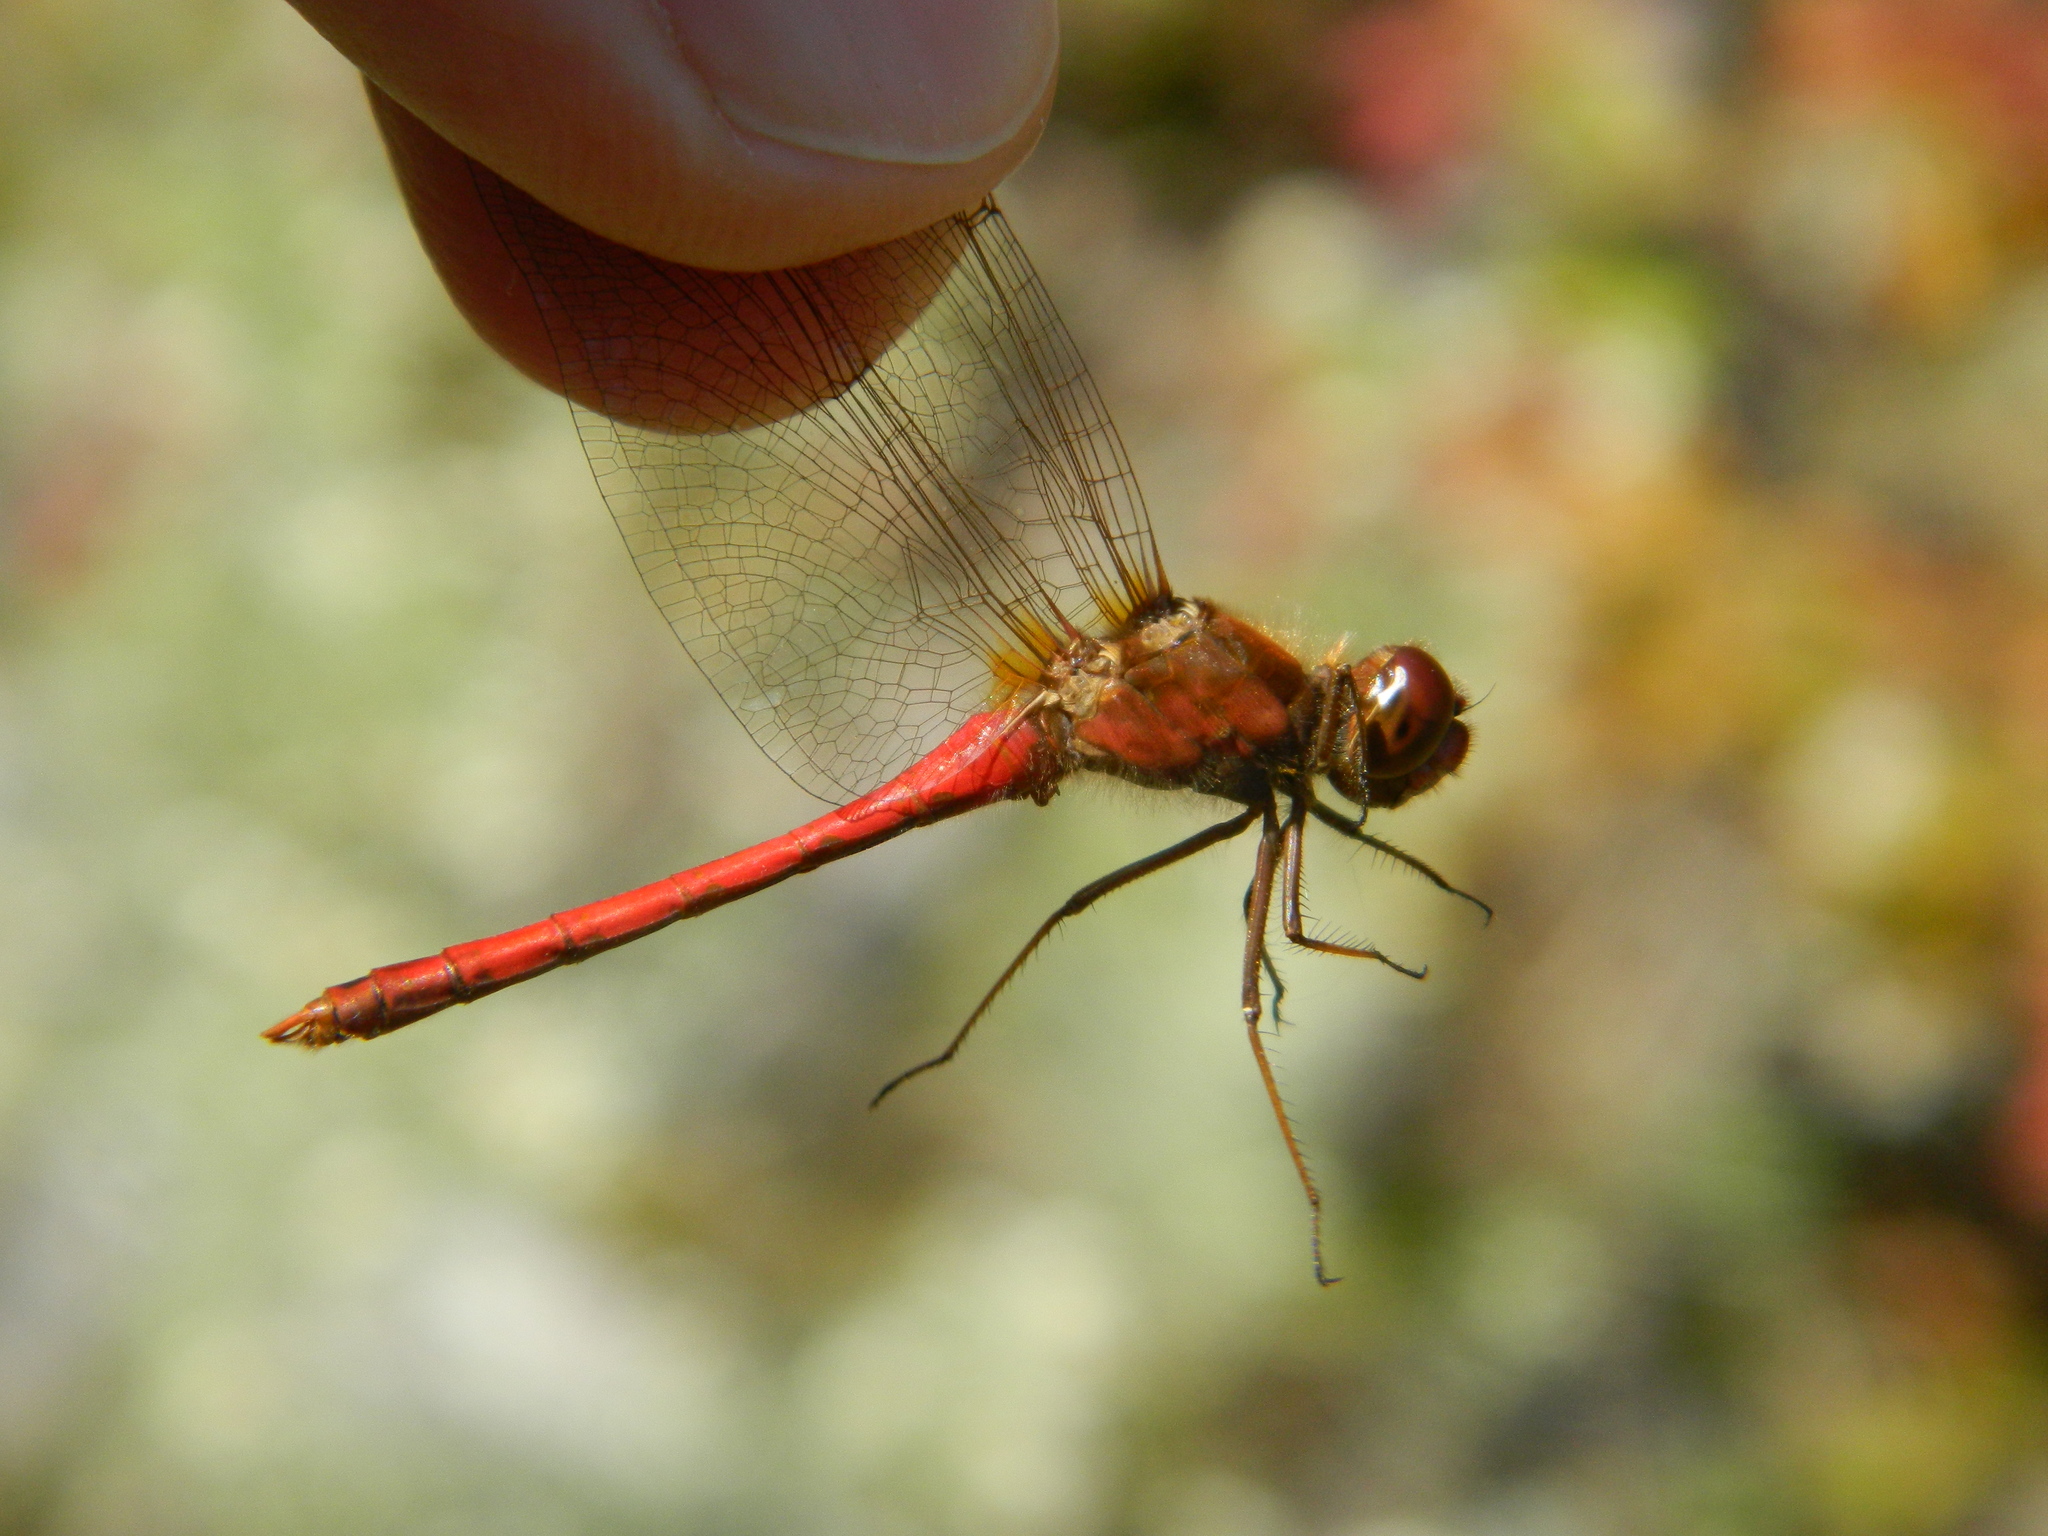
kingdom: Animalia
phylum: Arthropoda
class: Insecta
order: Odonata
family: Libellulidae
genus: Sympetrum
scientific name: Sympetrum vicinum
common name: Autumn meadowhawk
